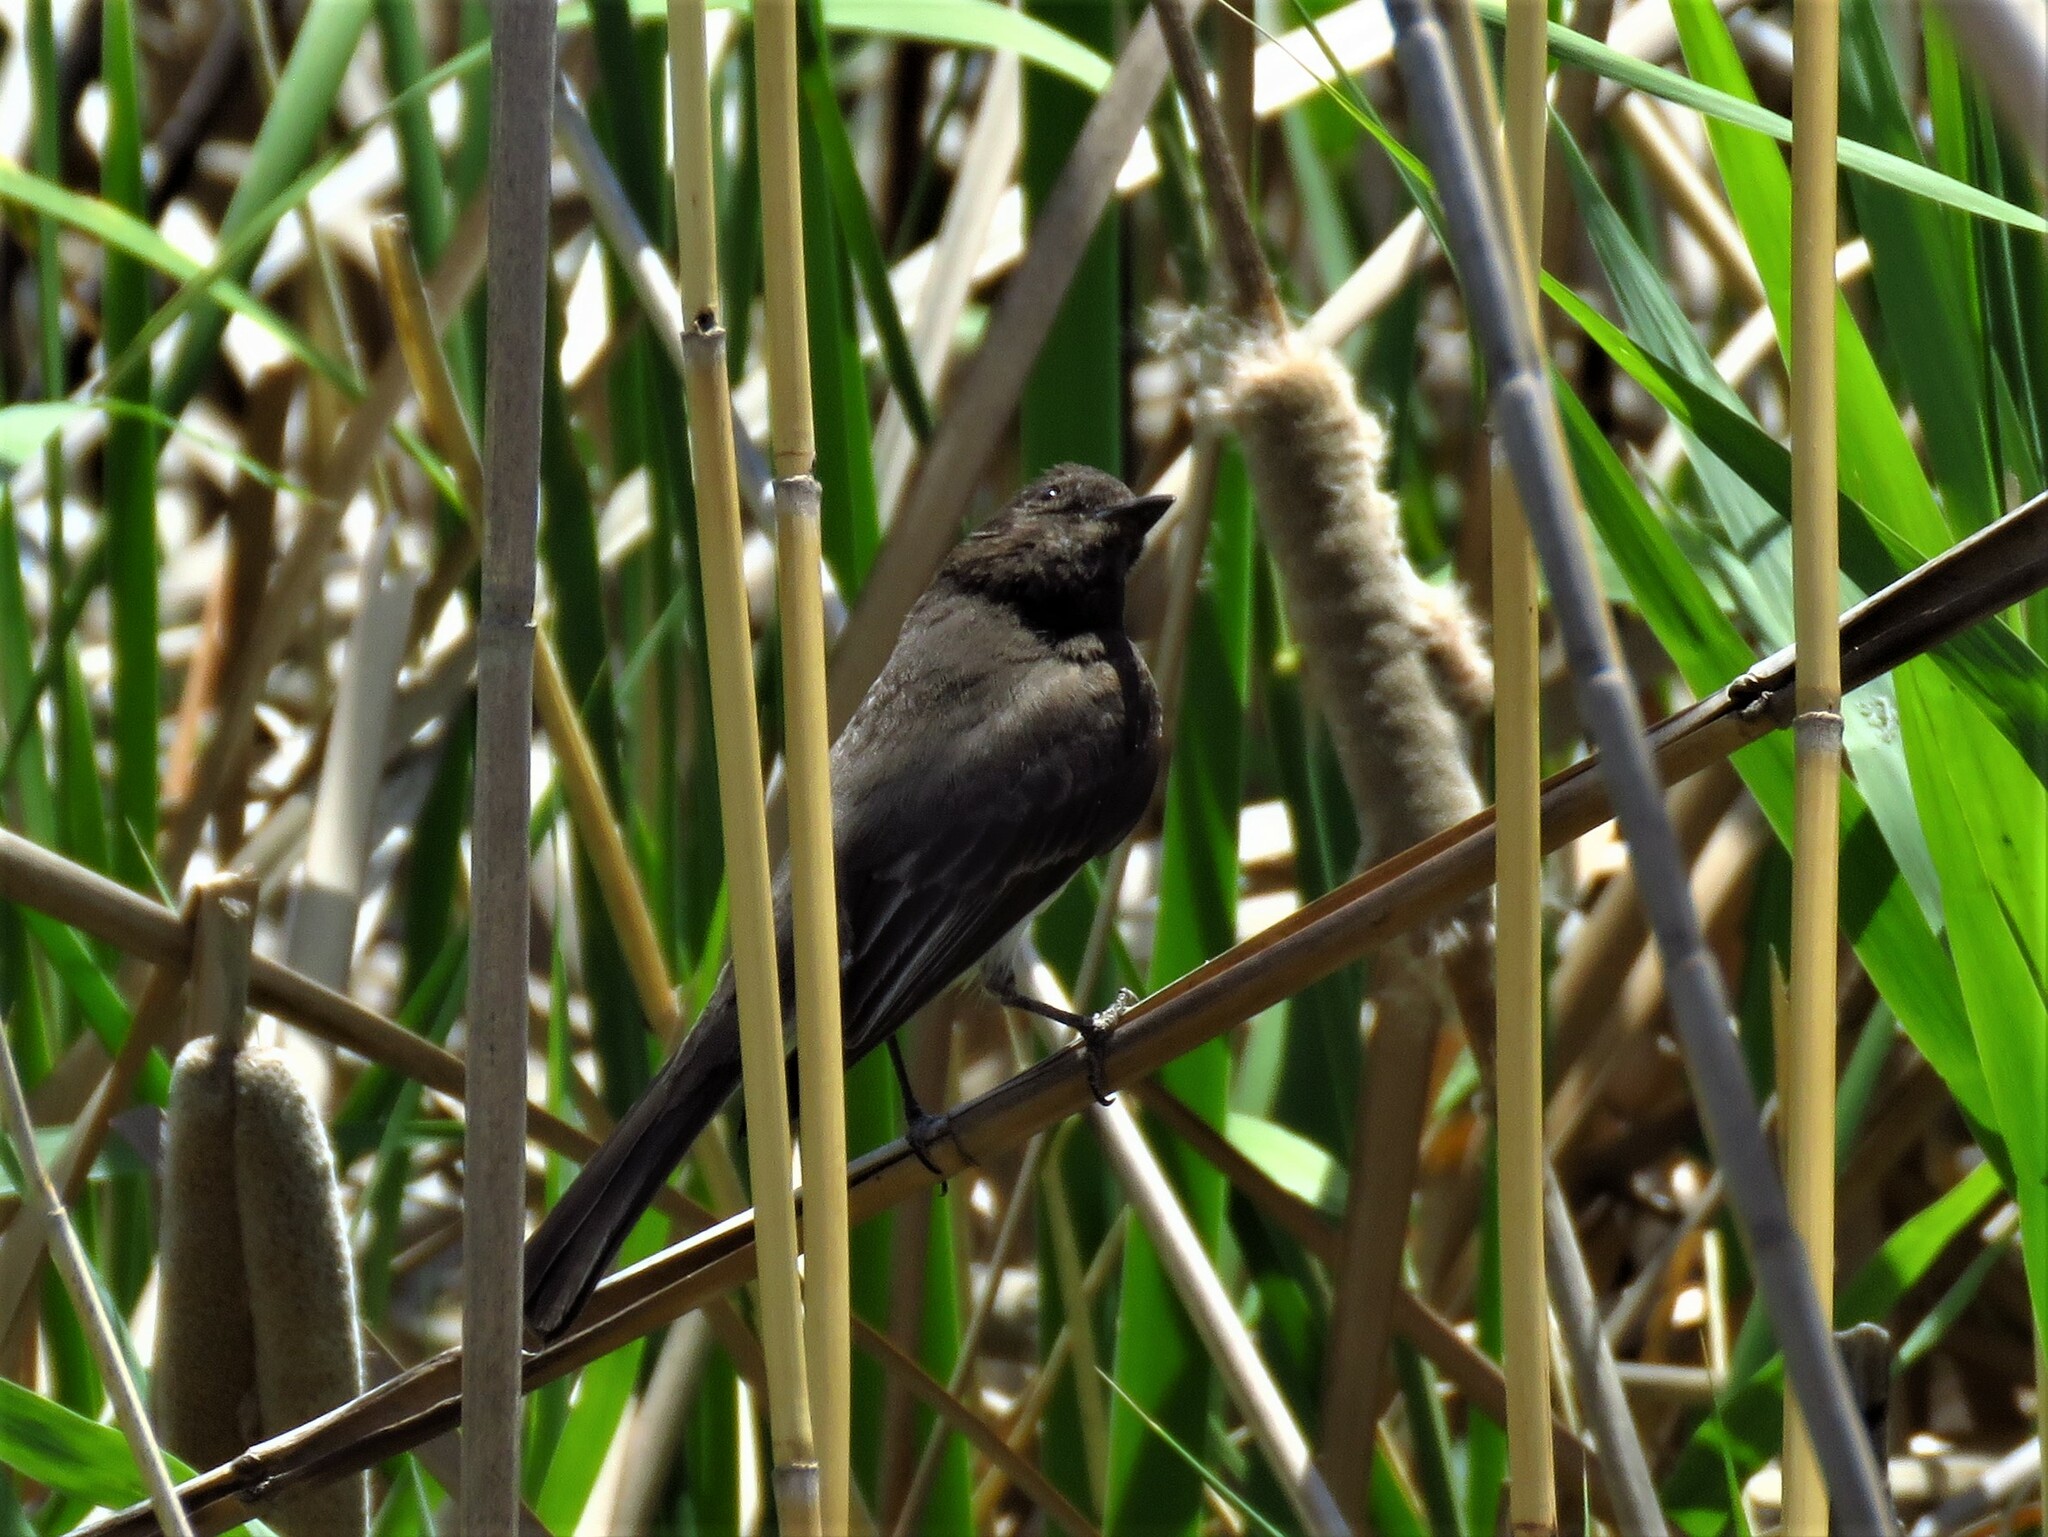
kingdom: Animalia
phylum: Chordata
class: Aves
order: Passeriformes
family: Tyrannidae
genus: Sayornis
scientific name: Sayornis nigricans
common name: Black phoebe
